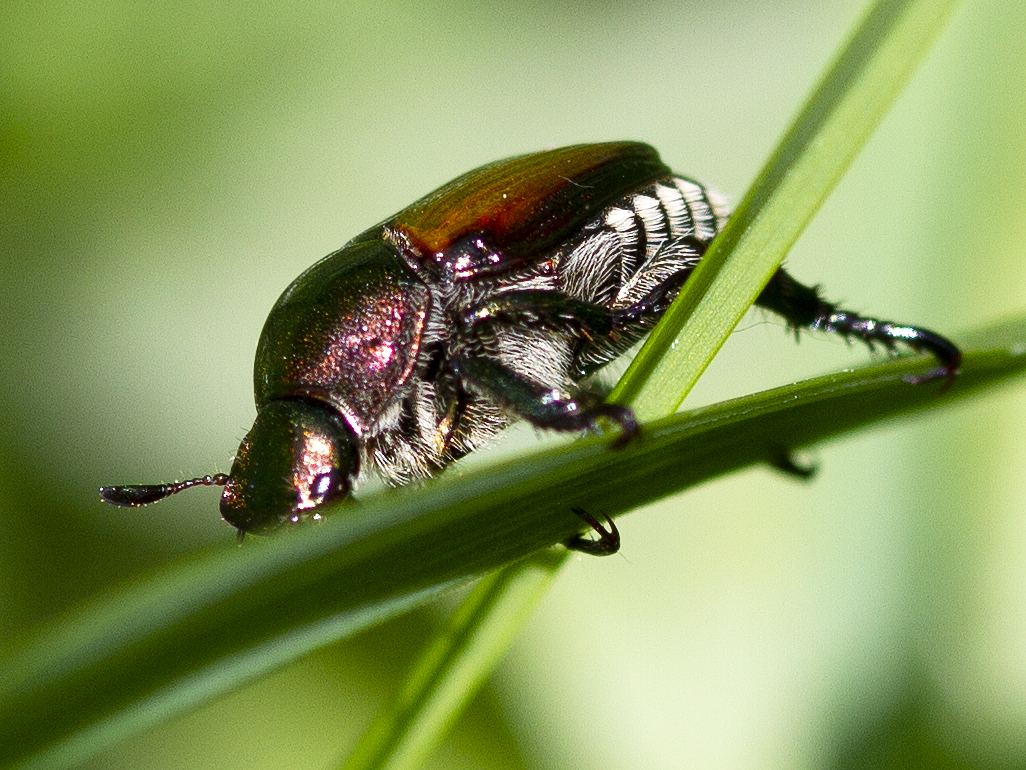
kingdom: Animalia
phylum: Arthropoda
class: Insecta
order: Coleoptera
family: Scarabaeidae
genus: Popillia
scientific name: Popillia japonica
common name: Japanese beetle
